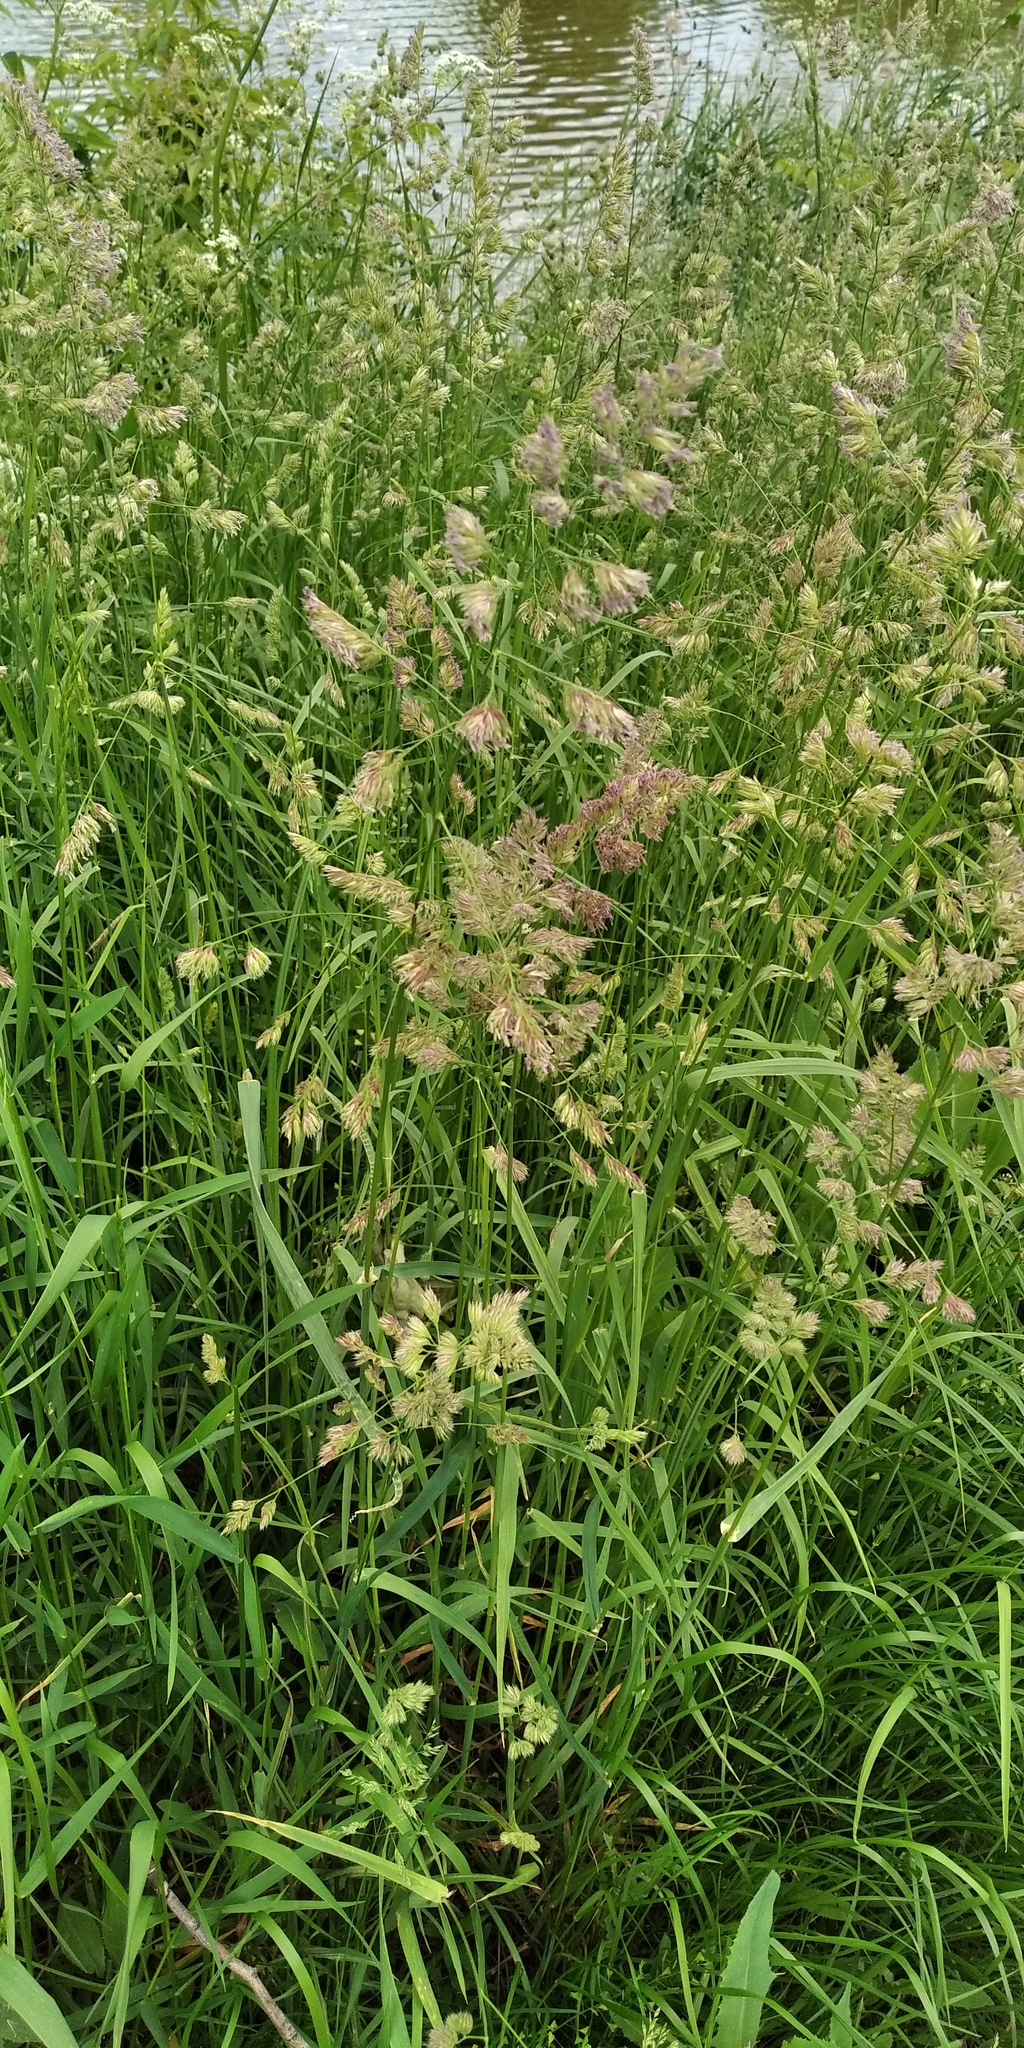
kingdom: Plantae
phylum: Tracheophyta
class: Liliopsida
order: Poales
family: Poaceae
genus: Dactylis
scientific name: Dactylis glomerata
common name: Orchardgrass
